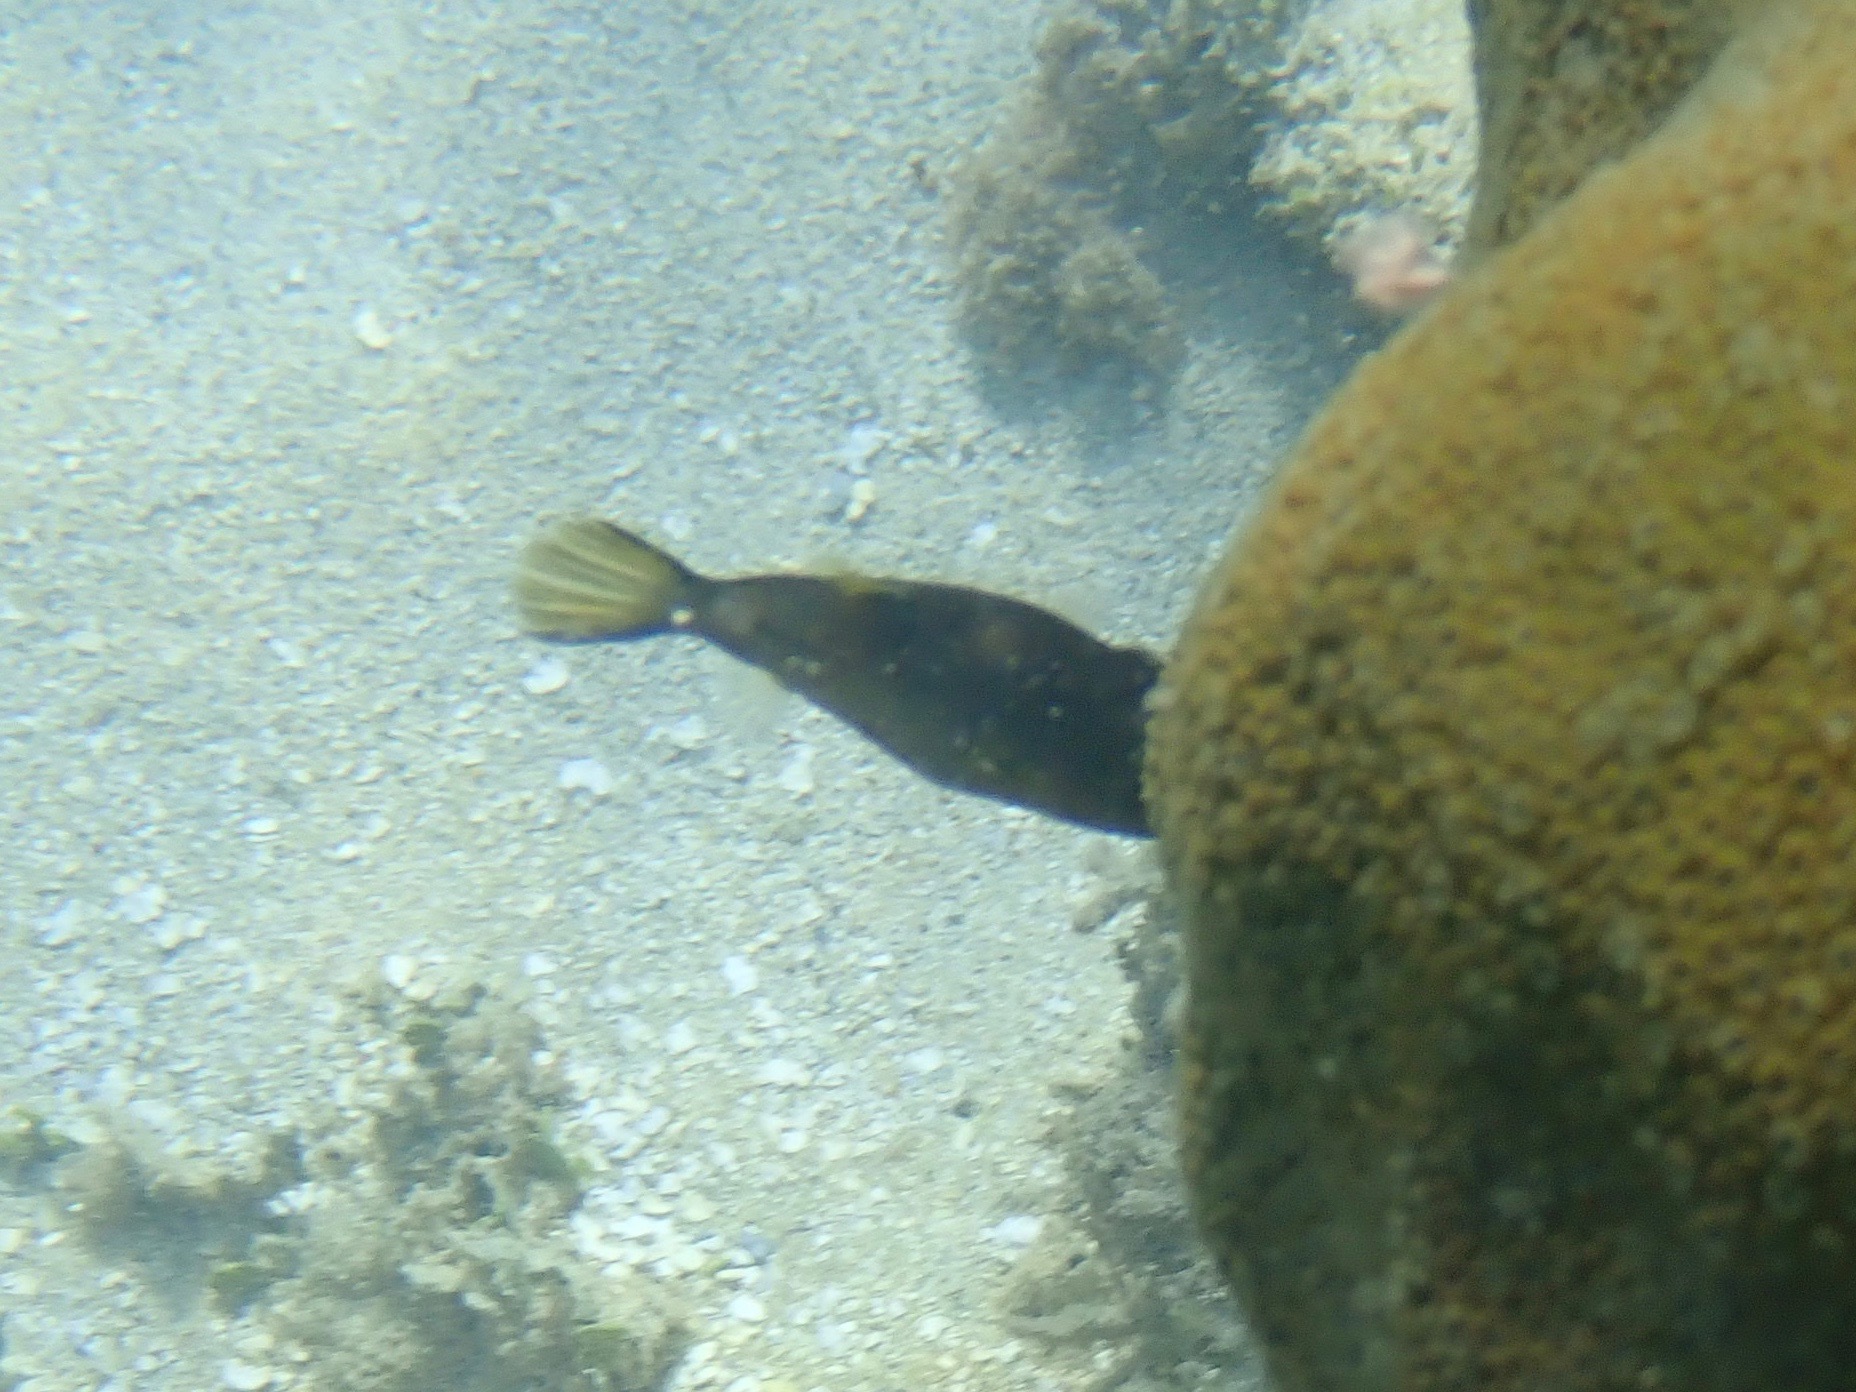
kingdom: Animalia
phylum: Chordata
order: Tetraodontiformes
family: Monacanthidae
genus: Cantherhines
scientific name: Cantherhines pullus
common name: Orangespotted filefish
